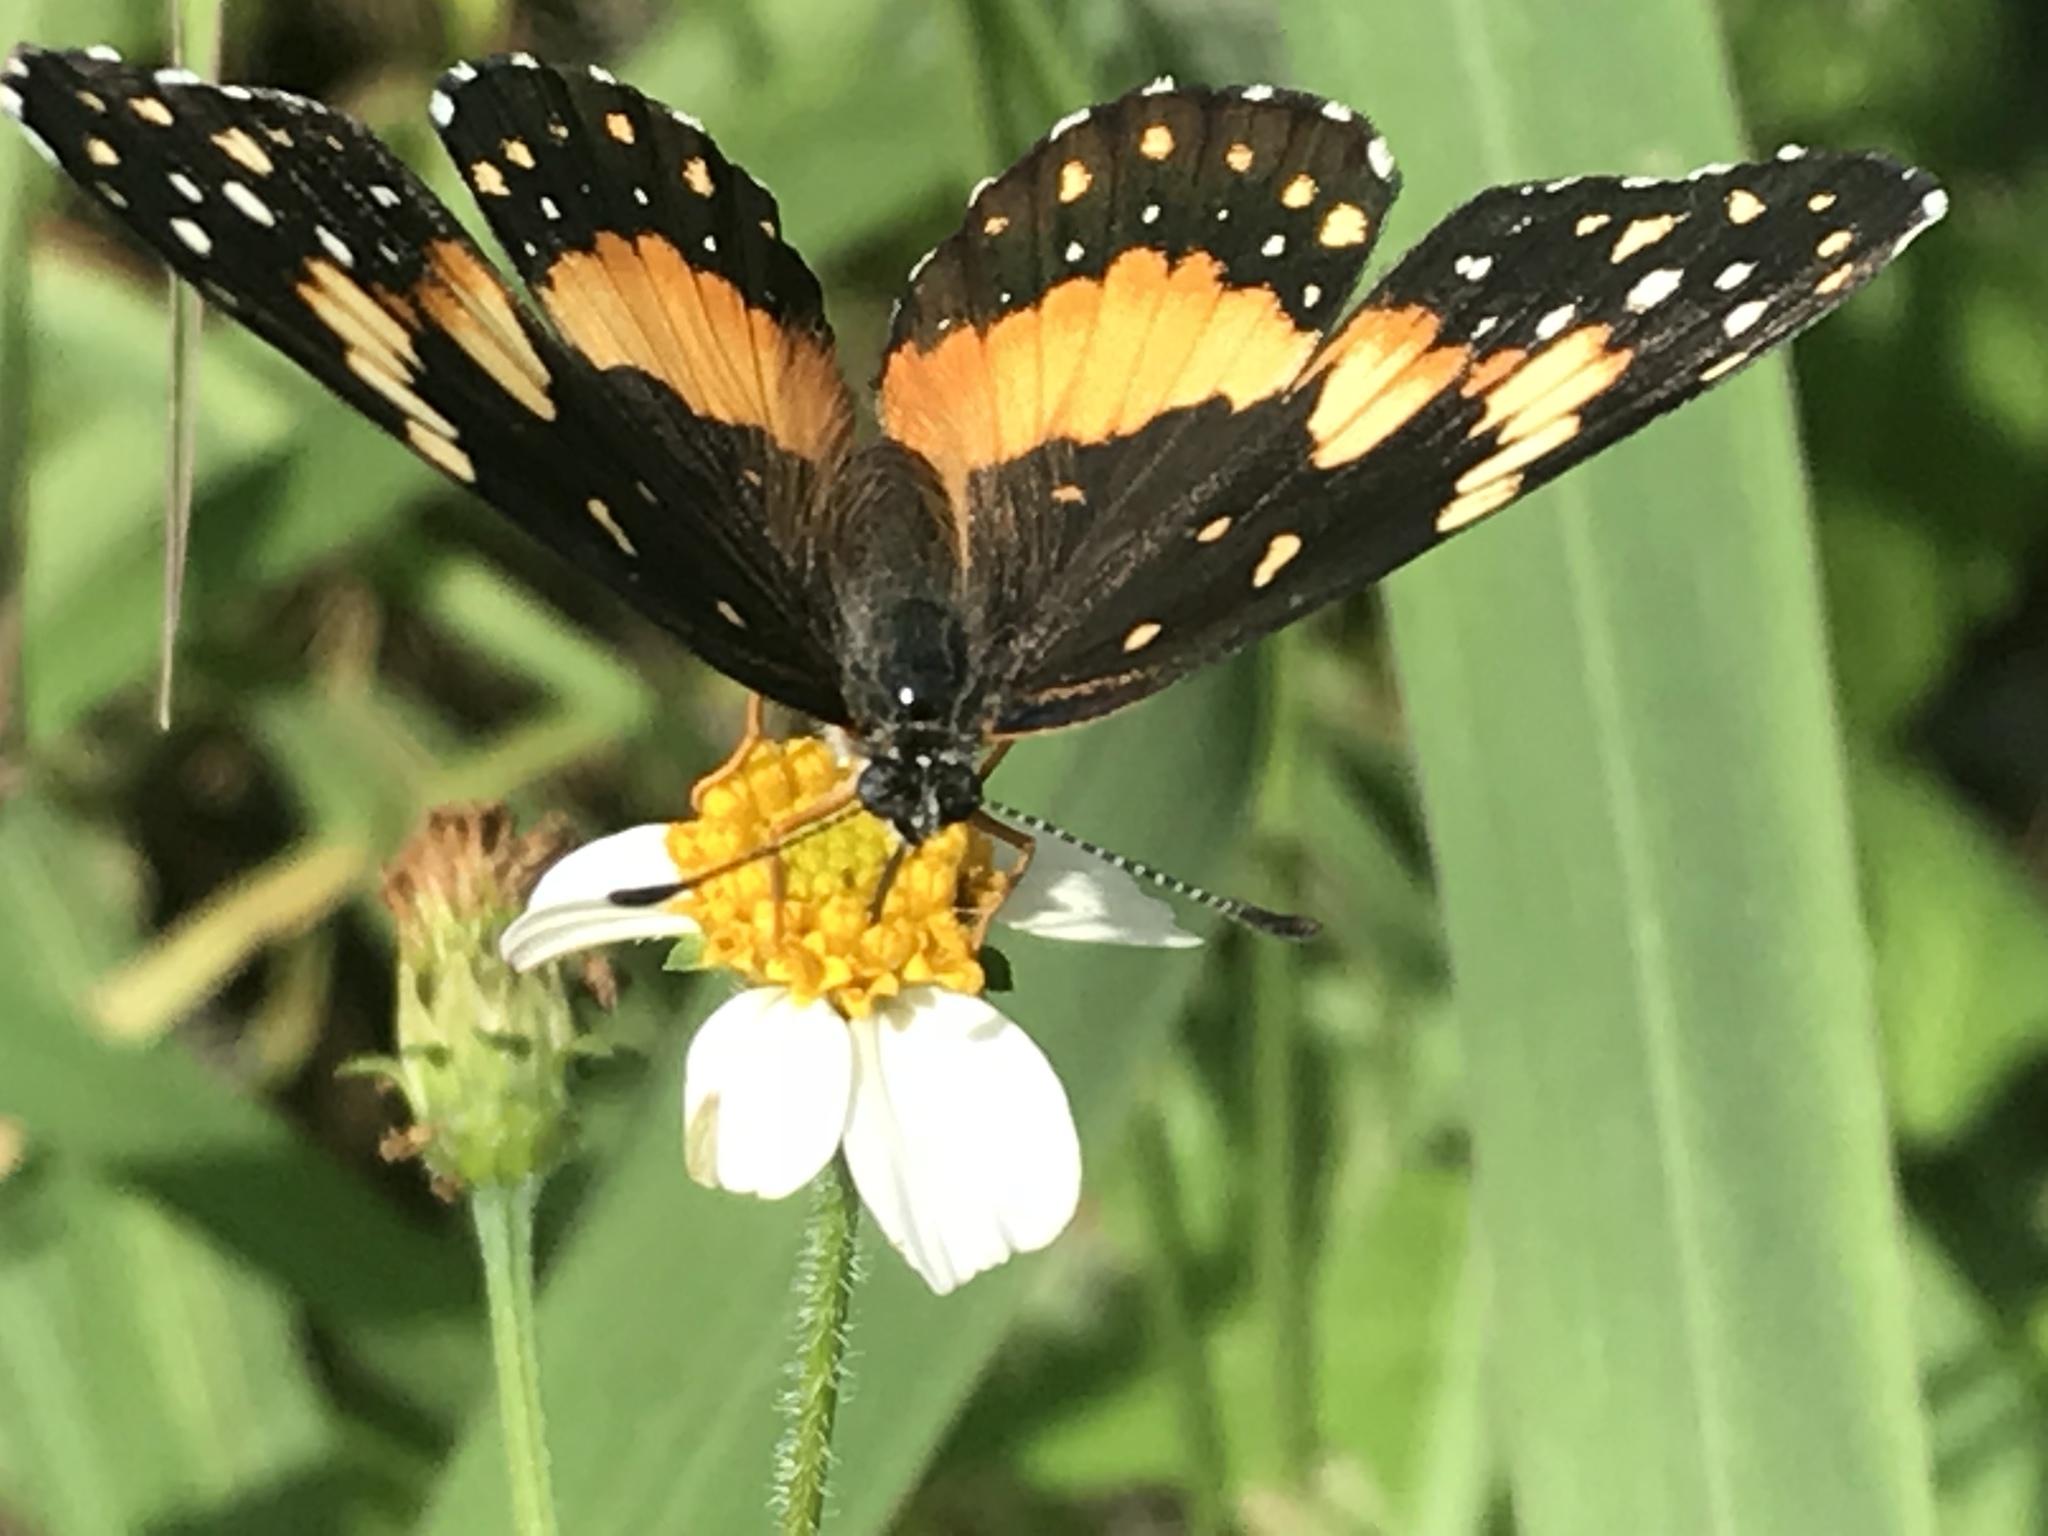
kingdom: Animalia
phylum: Arthropoda
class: Insecta
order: Lepidoptera
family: Nymphalidae
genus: Chlosyne
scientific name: Chlosyne lacinia
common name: Bordered patch
